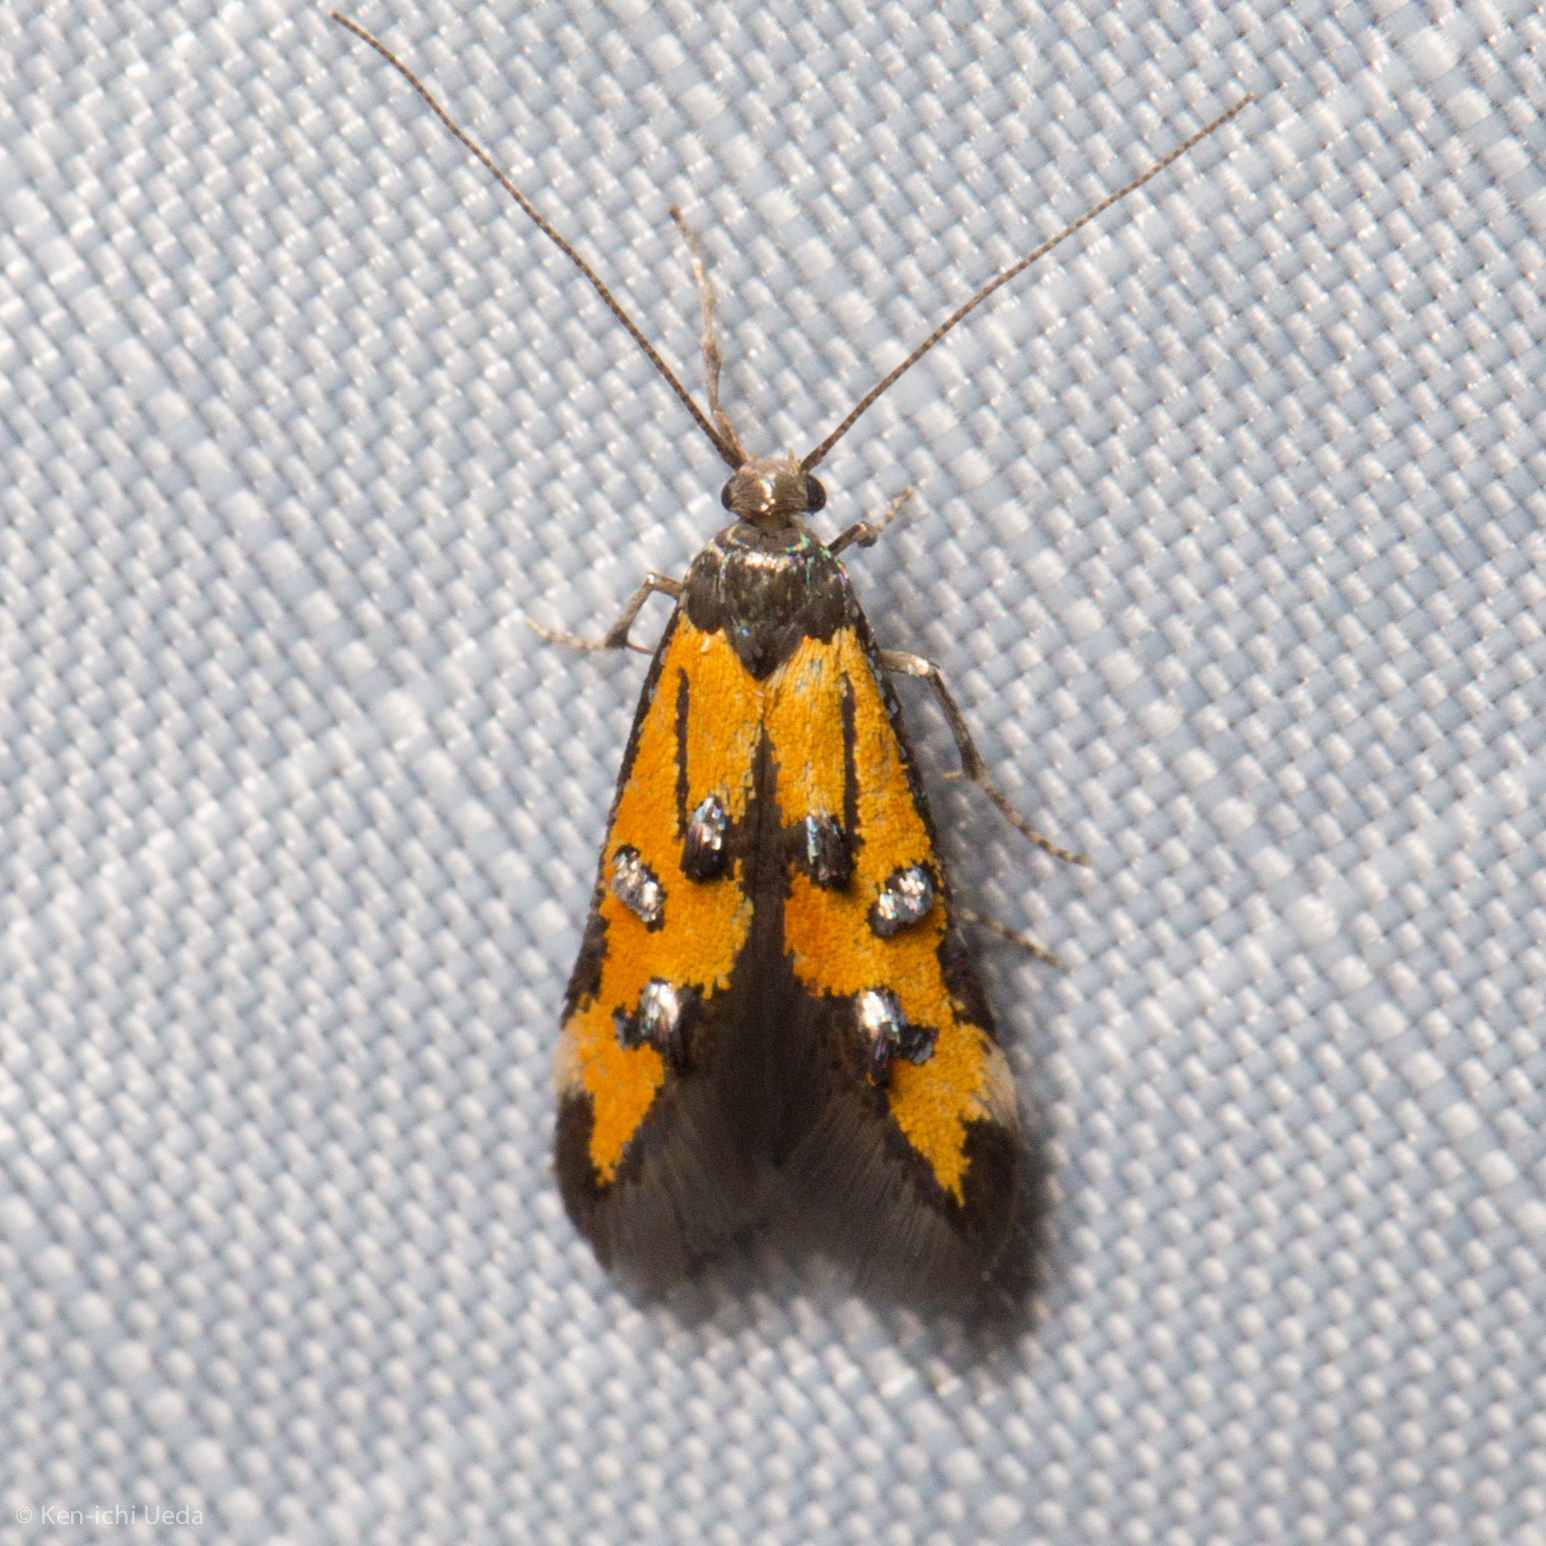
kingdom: Animalia
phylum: Arthropoda
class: Insecta
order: Lepidoptera
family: Elachistidae
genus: Chrysoclista
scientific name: Chrysoclista
